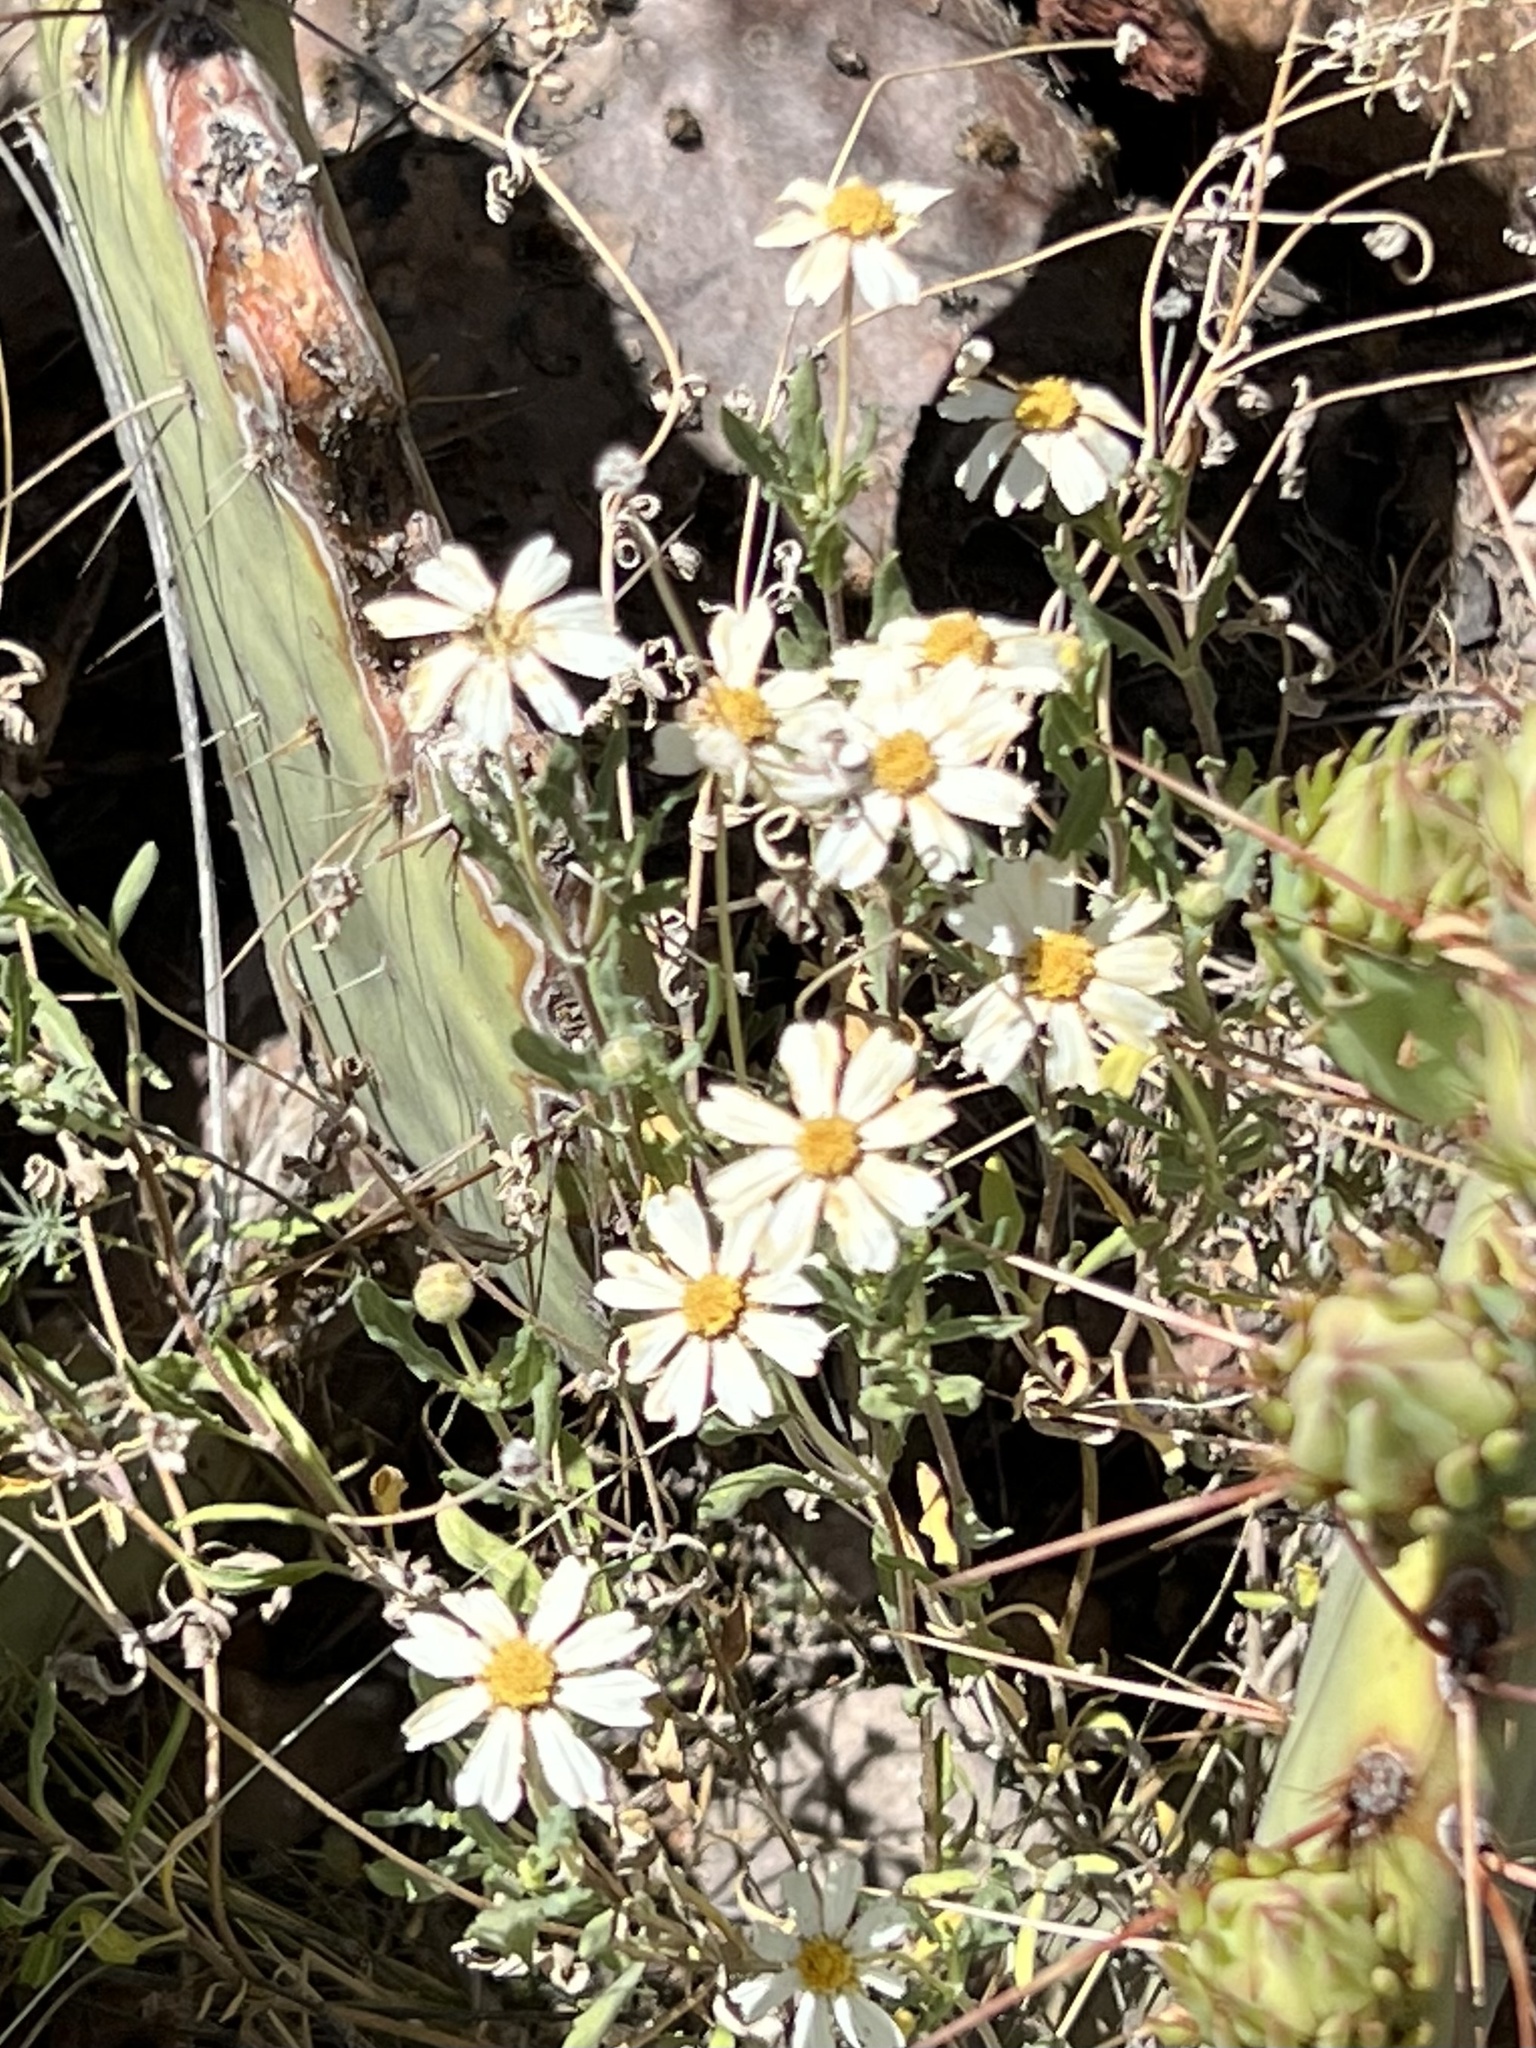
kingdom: Plantae
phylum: Tracheophyta
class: Magnoliopsida
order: Asterales
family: Asteraceae
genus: Melampodium
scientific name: Melampodium leucanthum
